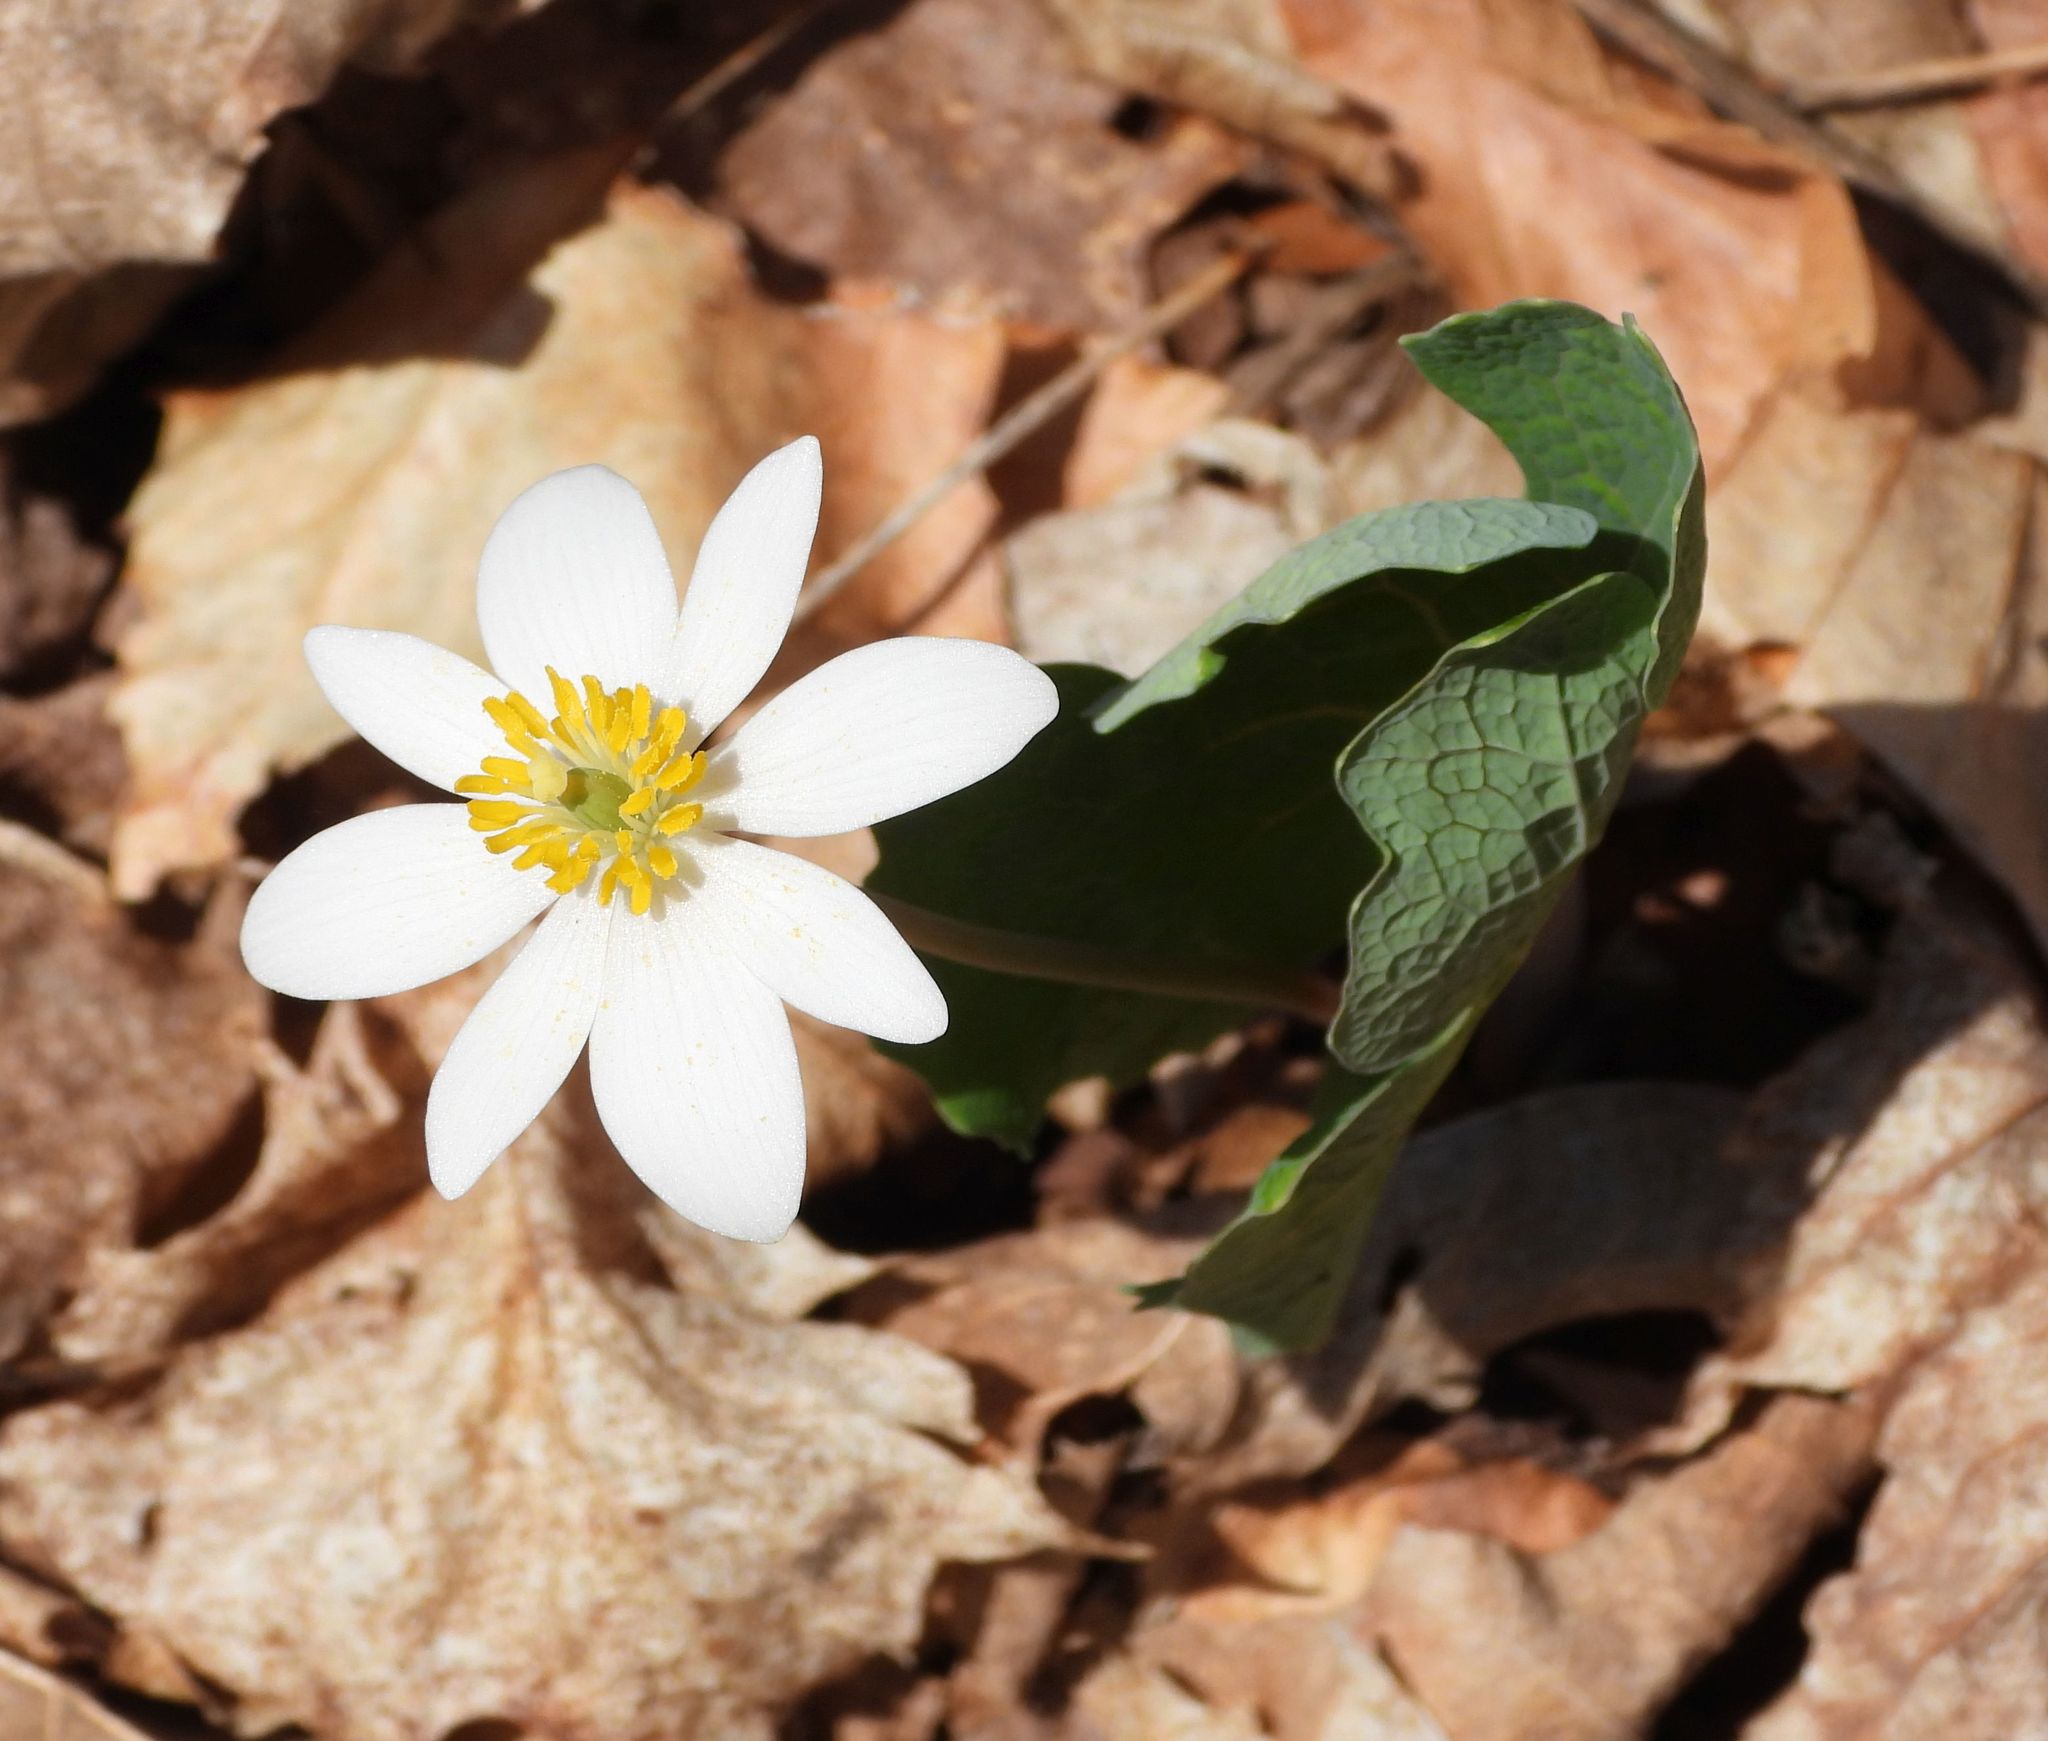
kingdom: Plantae
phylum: Tracheophyta
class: Magnoliopsida
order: Ranunculales
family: Papaveraceae
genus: Sanguinaria
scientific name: Sanguinaria canadensis
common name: Bloodroot
